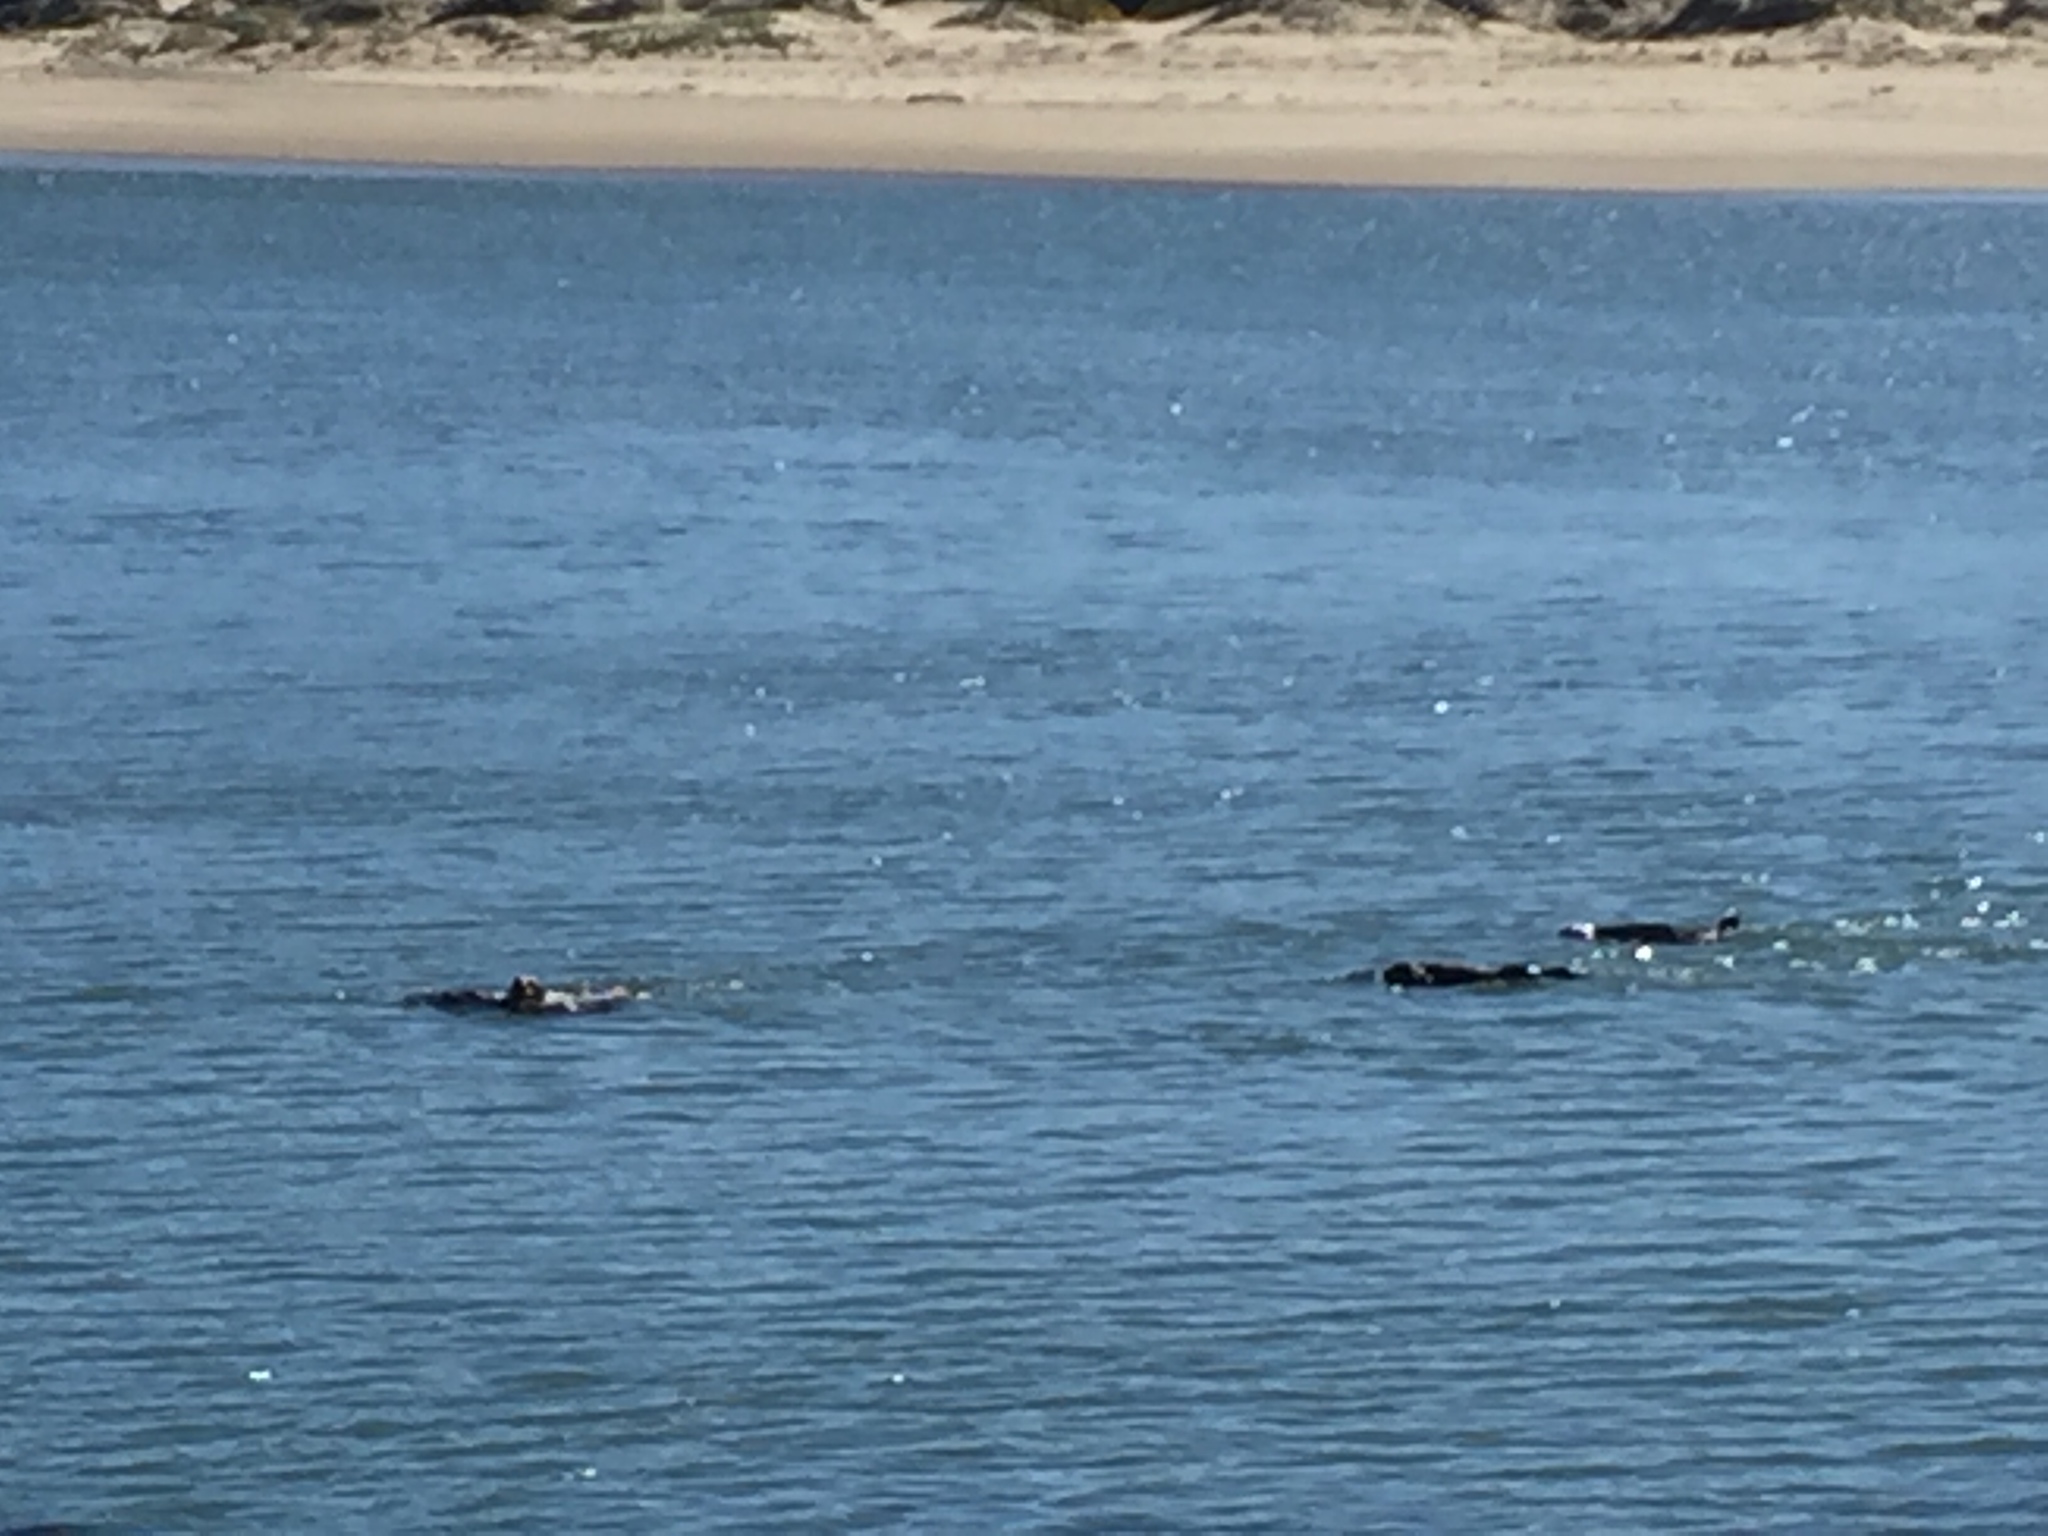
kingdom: Animalia
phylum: Chordata
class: Mammalia
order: Carnivora
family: Mustelidae
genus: Enhydra
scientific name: Enhydra lutris
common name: Sea otter
